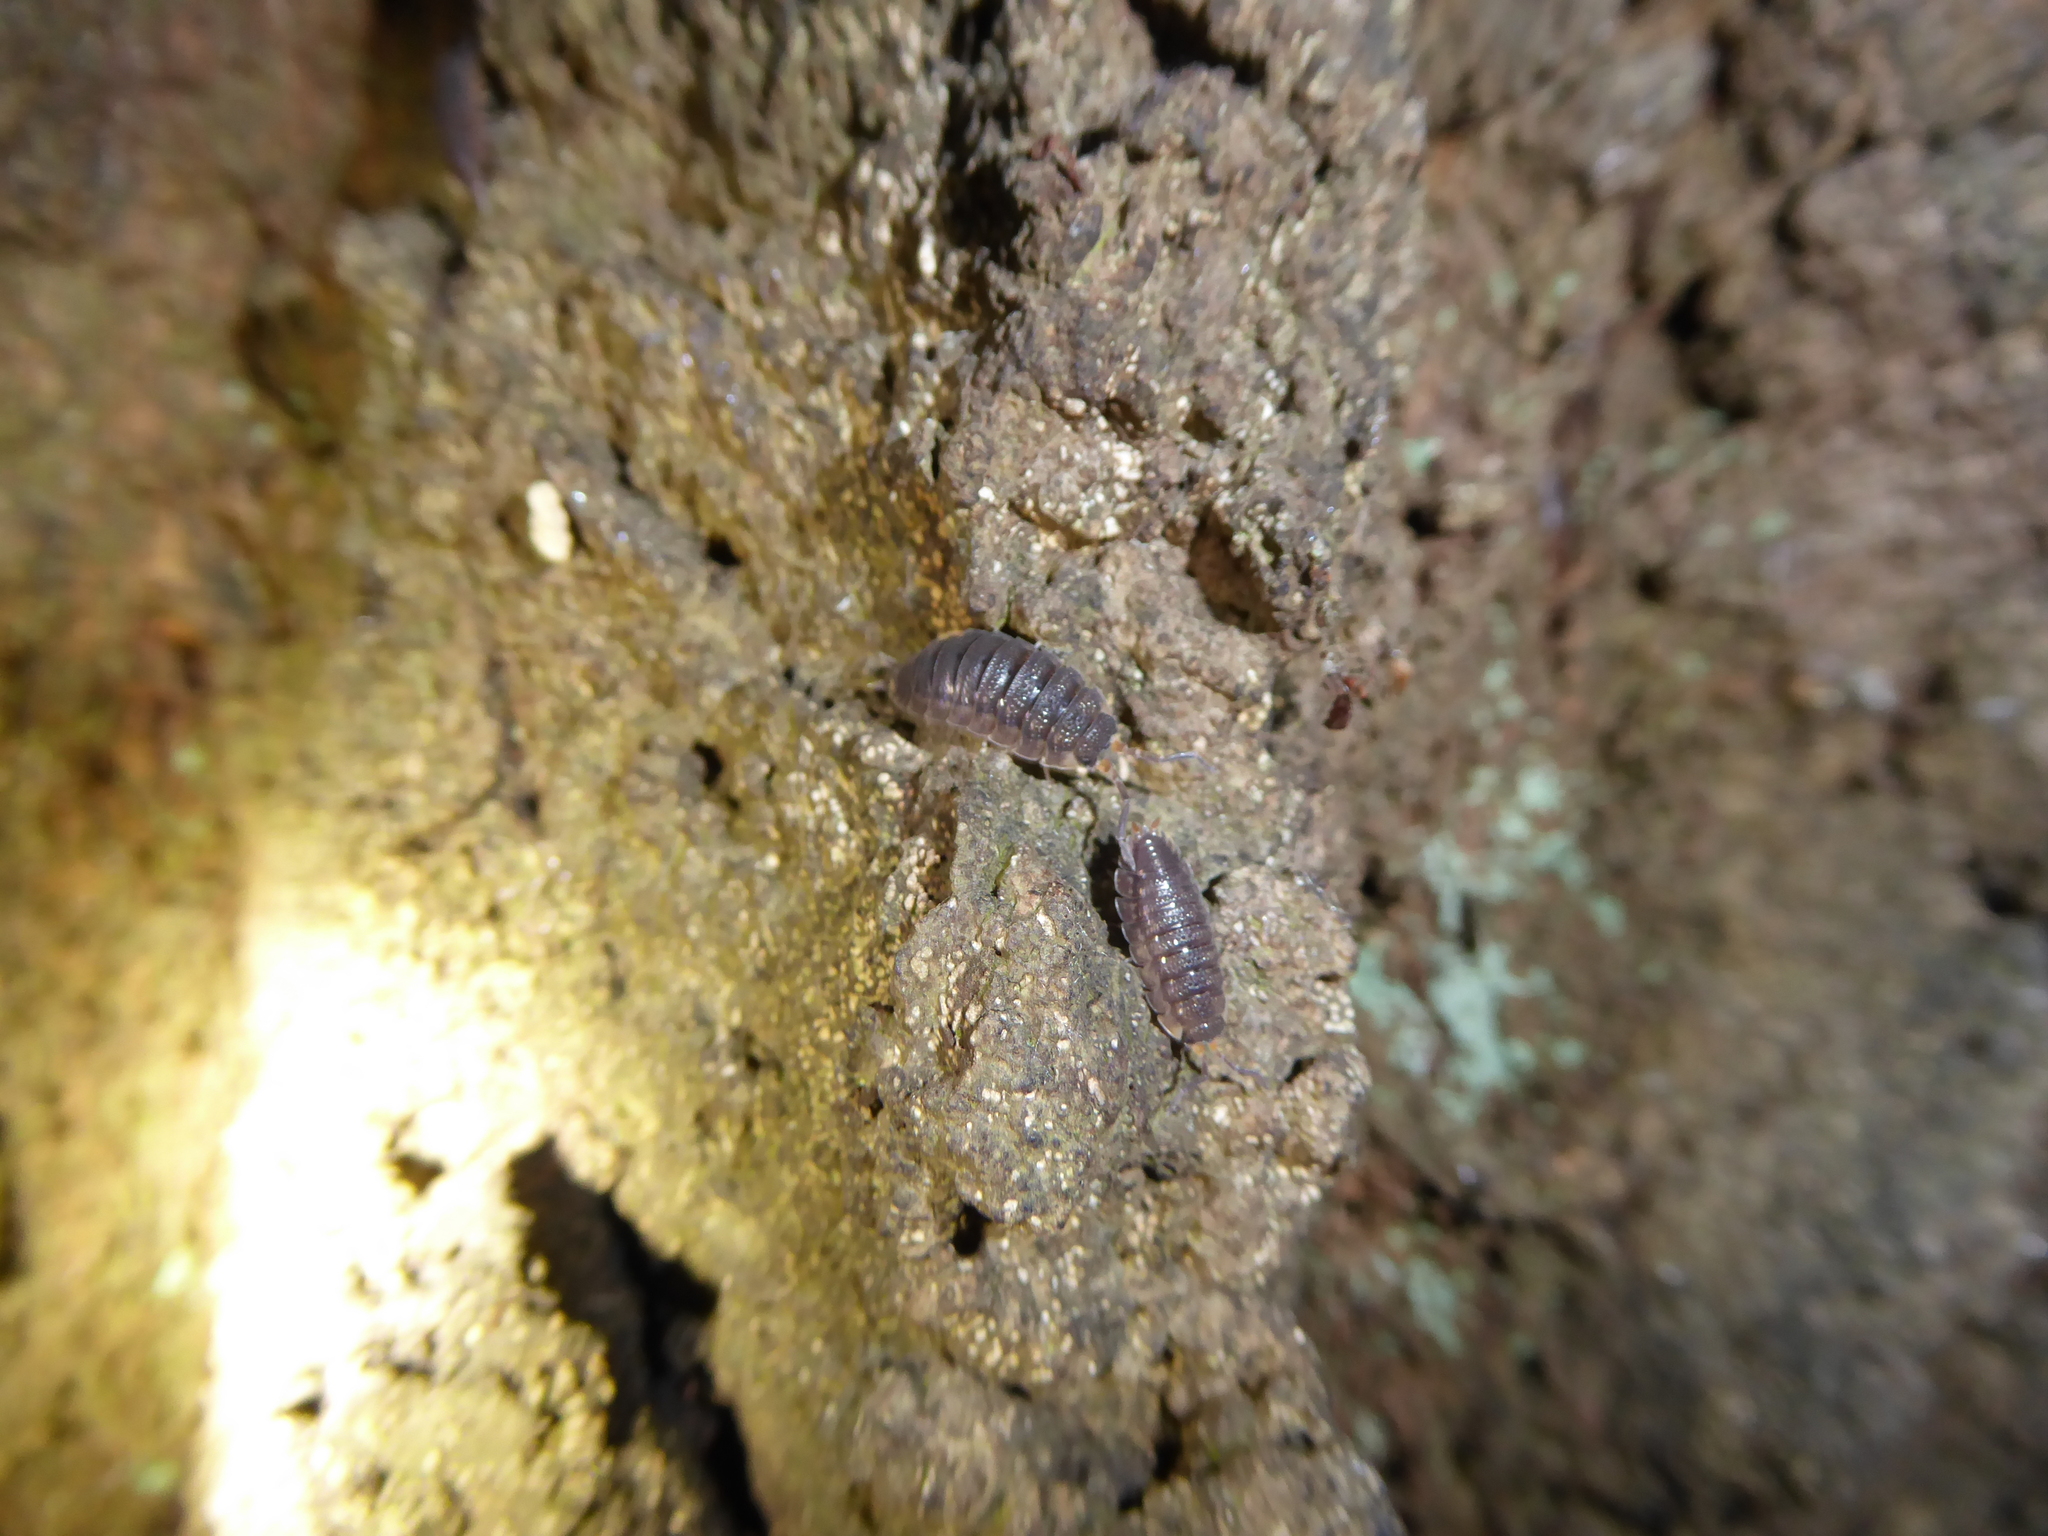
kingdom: Animalia
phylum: Arthropoda
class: Malacostraca
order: Isopoda
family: Porcellionidae
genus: Porcellio
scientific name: Porcellio scaber
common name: Common rough woodlouse
